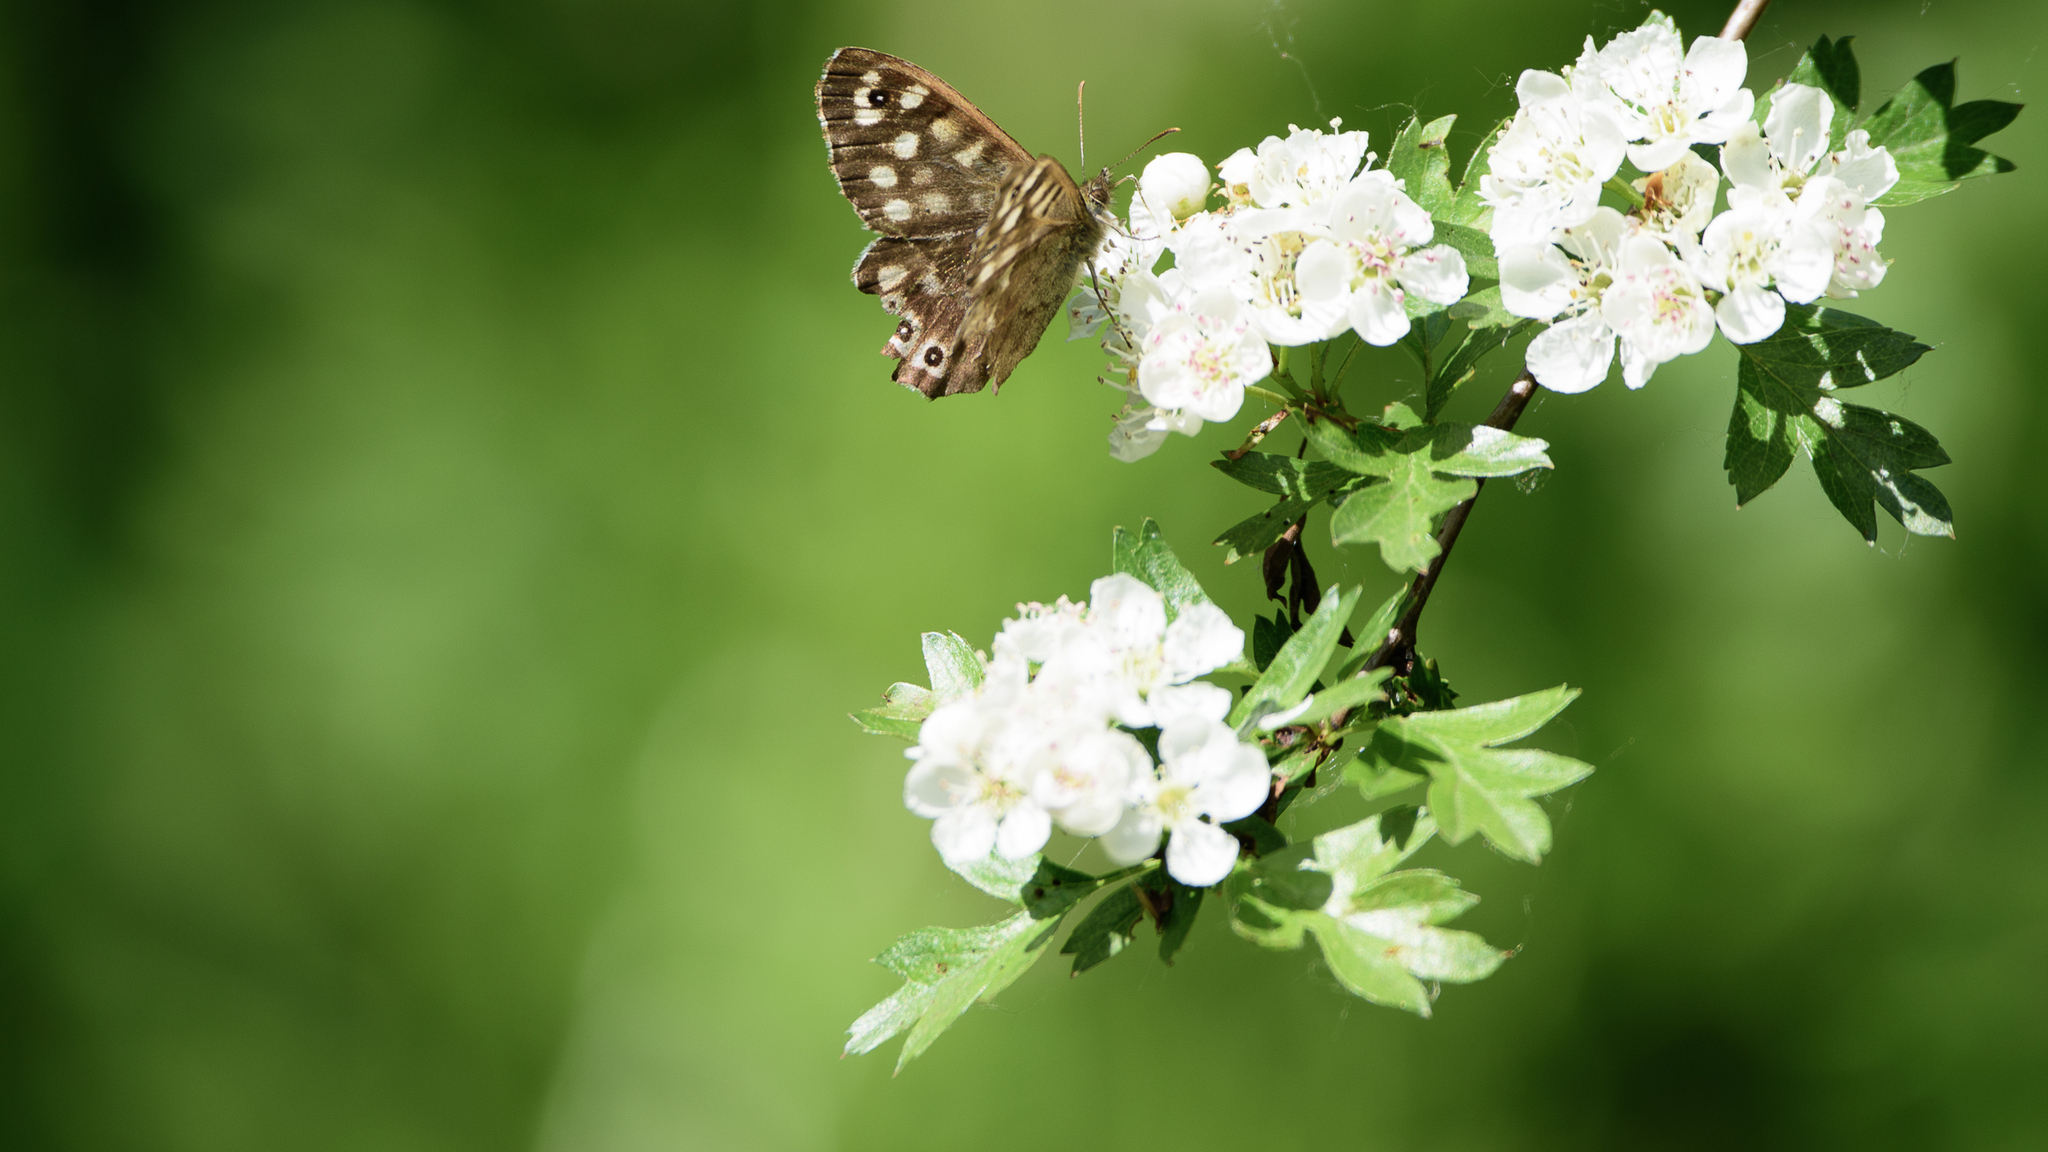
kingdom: Animalia
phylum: Arthropoda
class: Insecta
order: Lepidoptera
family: Nymphalidae
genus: Pararge
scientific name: Pararge aegeria
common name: Speckled wood
